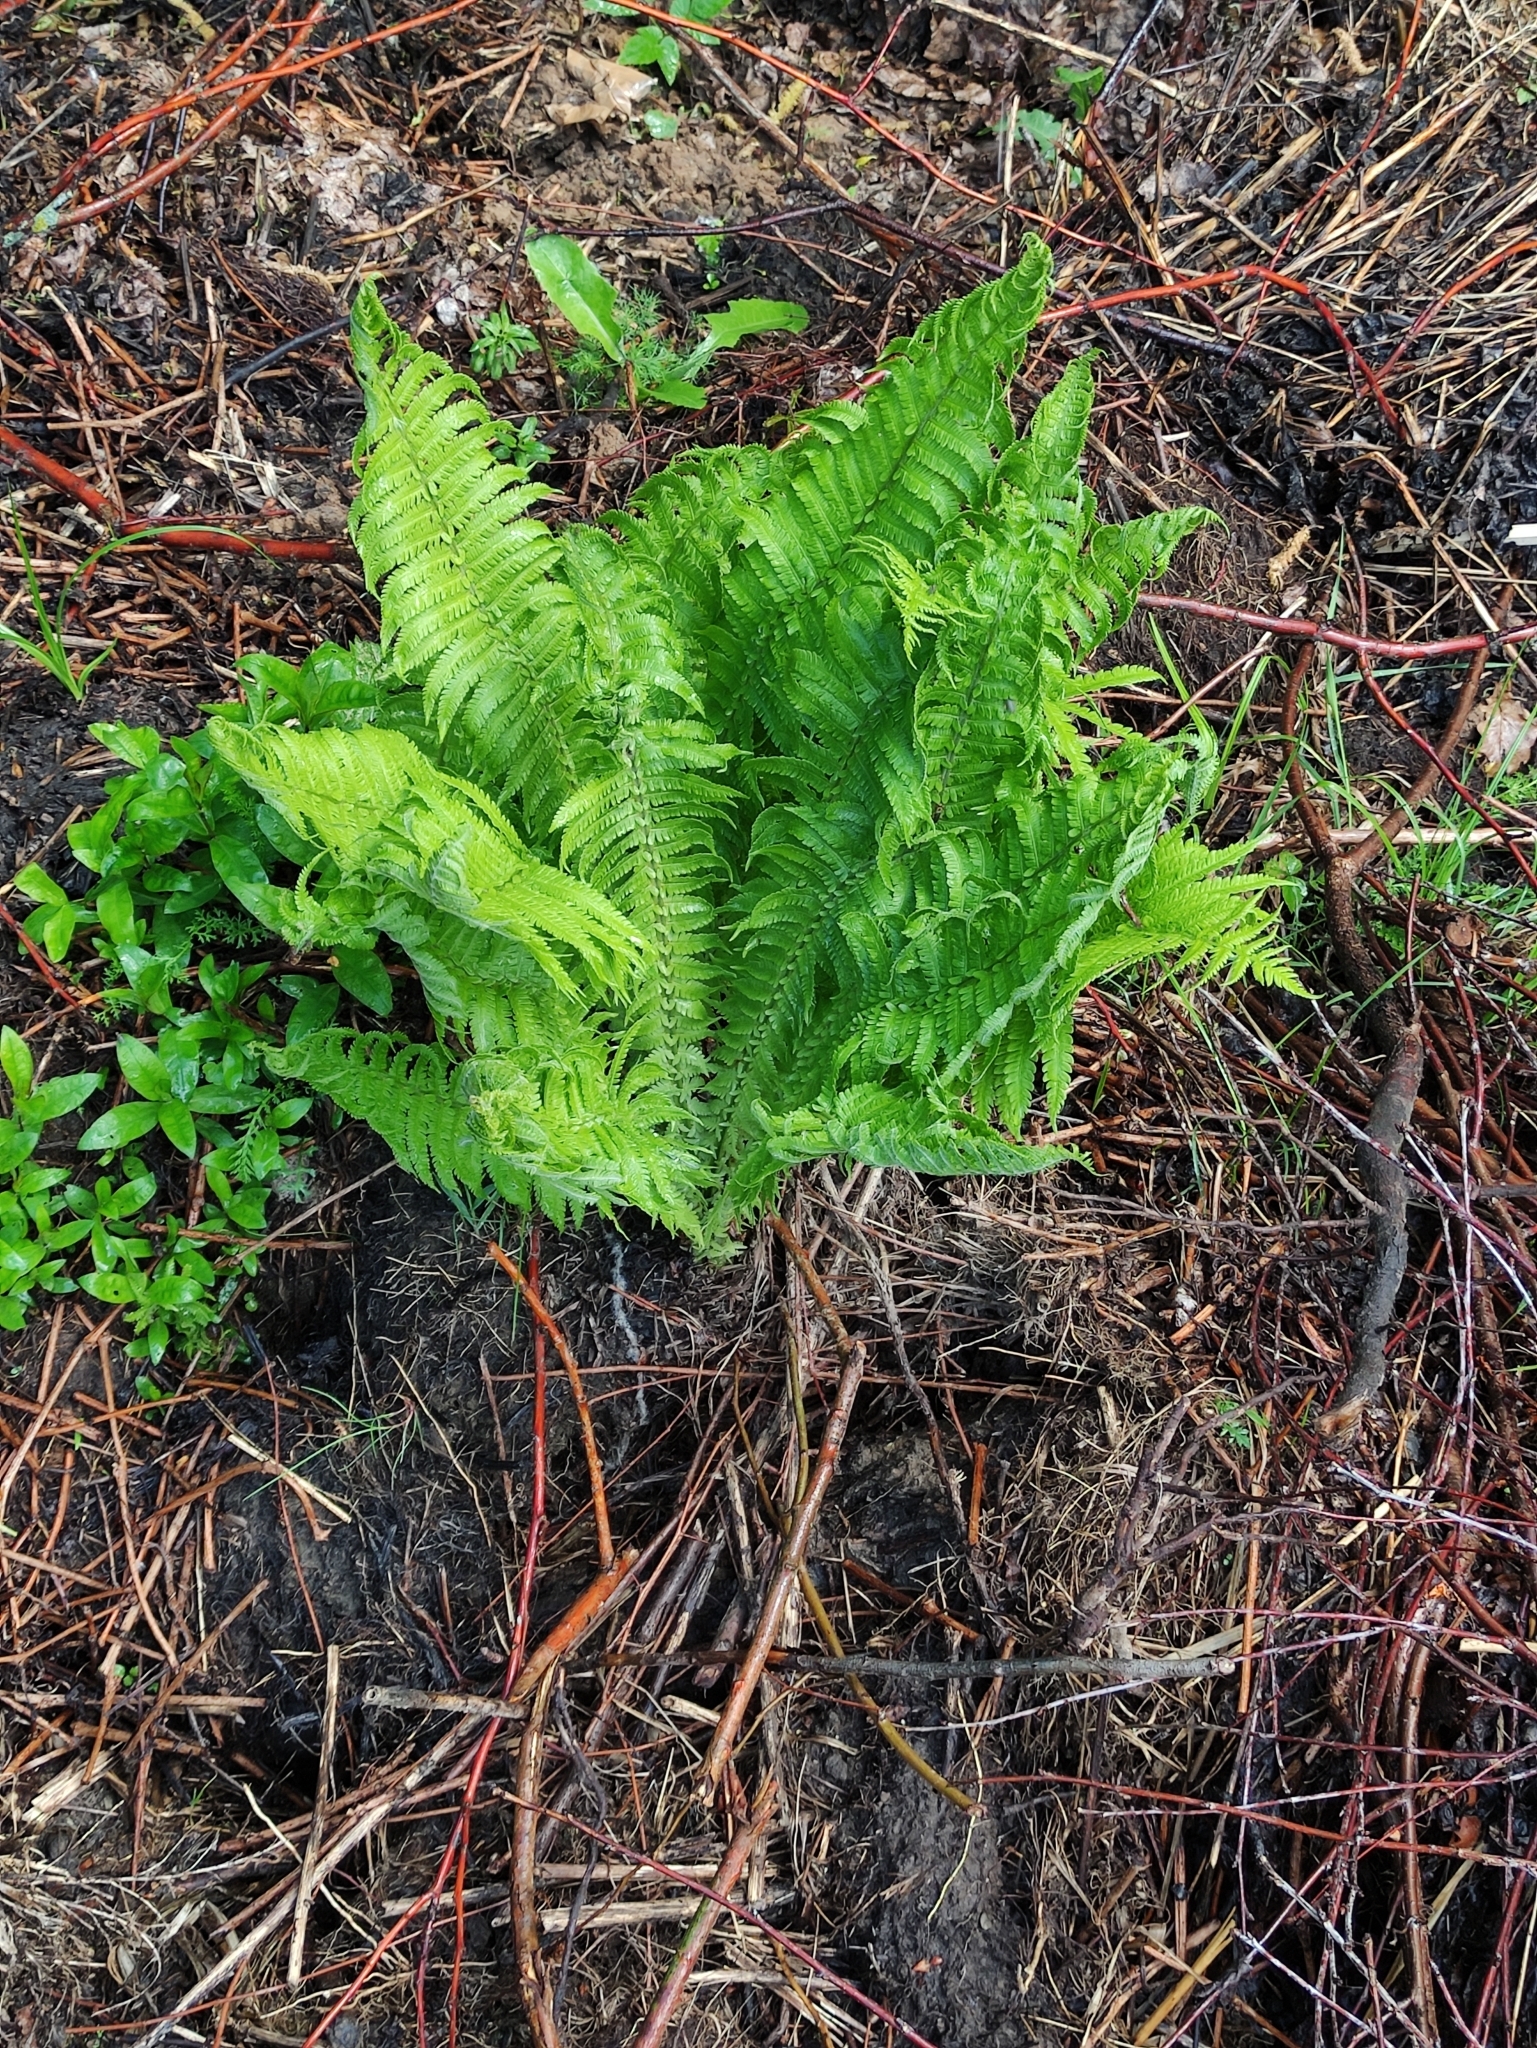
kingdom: Plantae
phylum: Tracheophyta
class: Polypodiopsida
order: Polypodiales
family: Onocleaceae
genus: Matteuccia
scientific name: Matteuccia struthiopteris
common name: Ostrich fern
